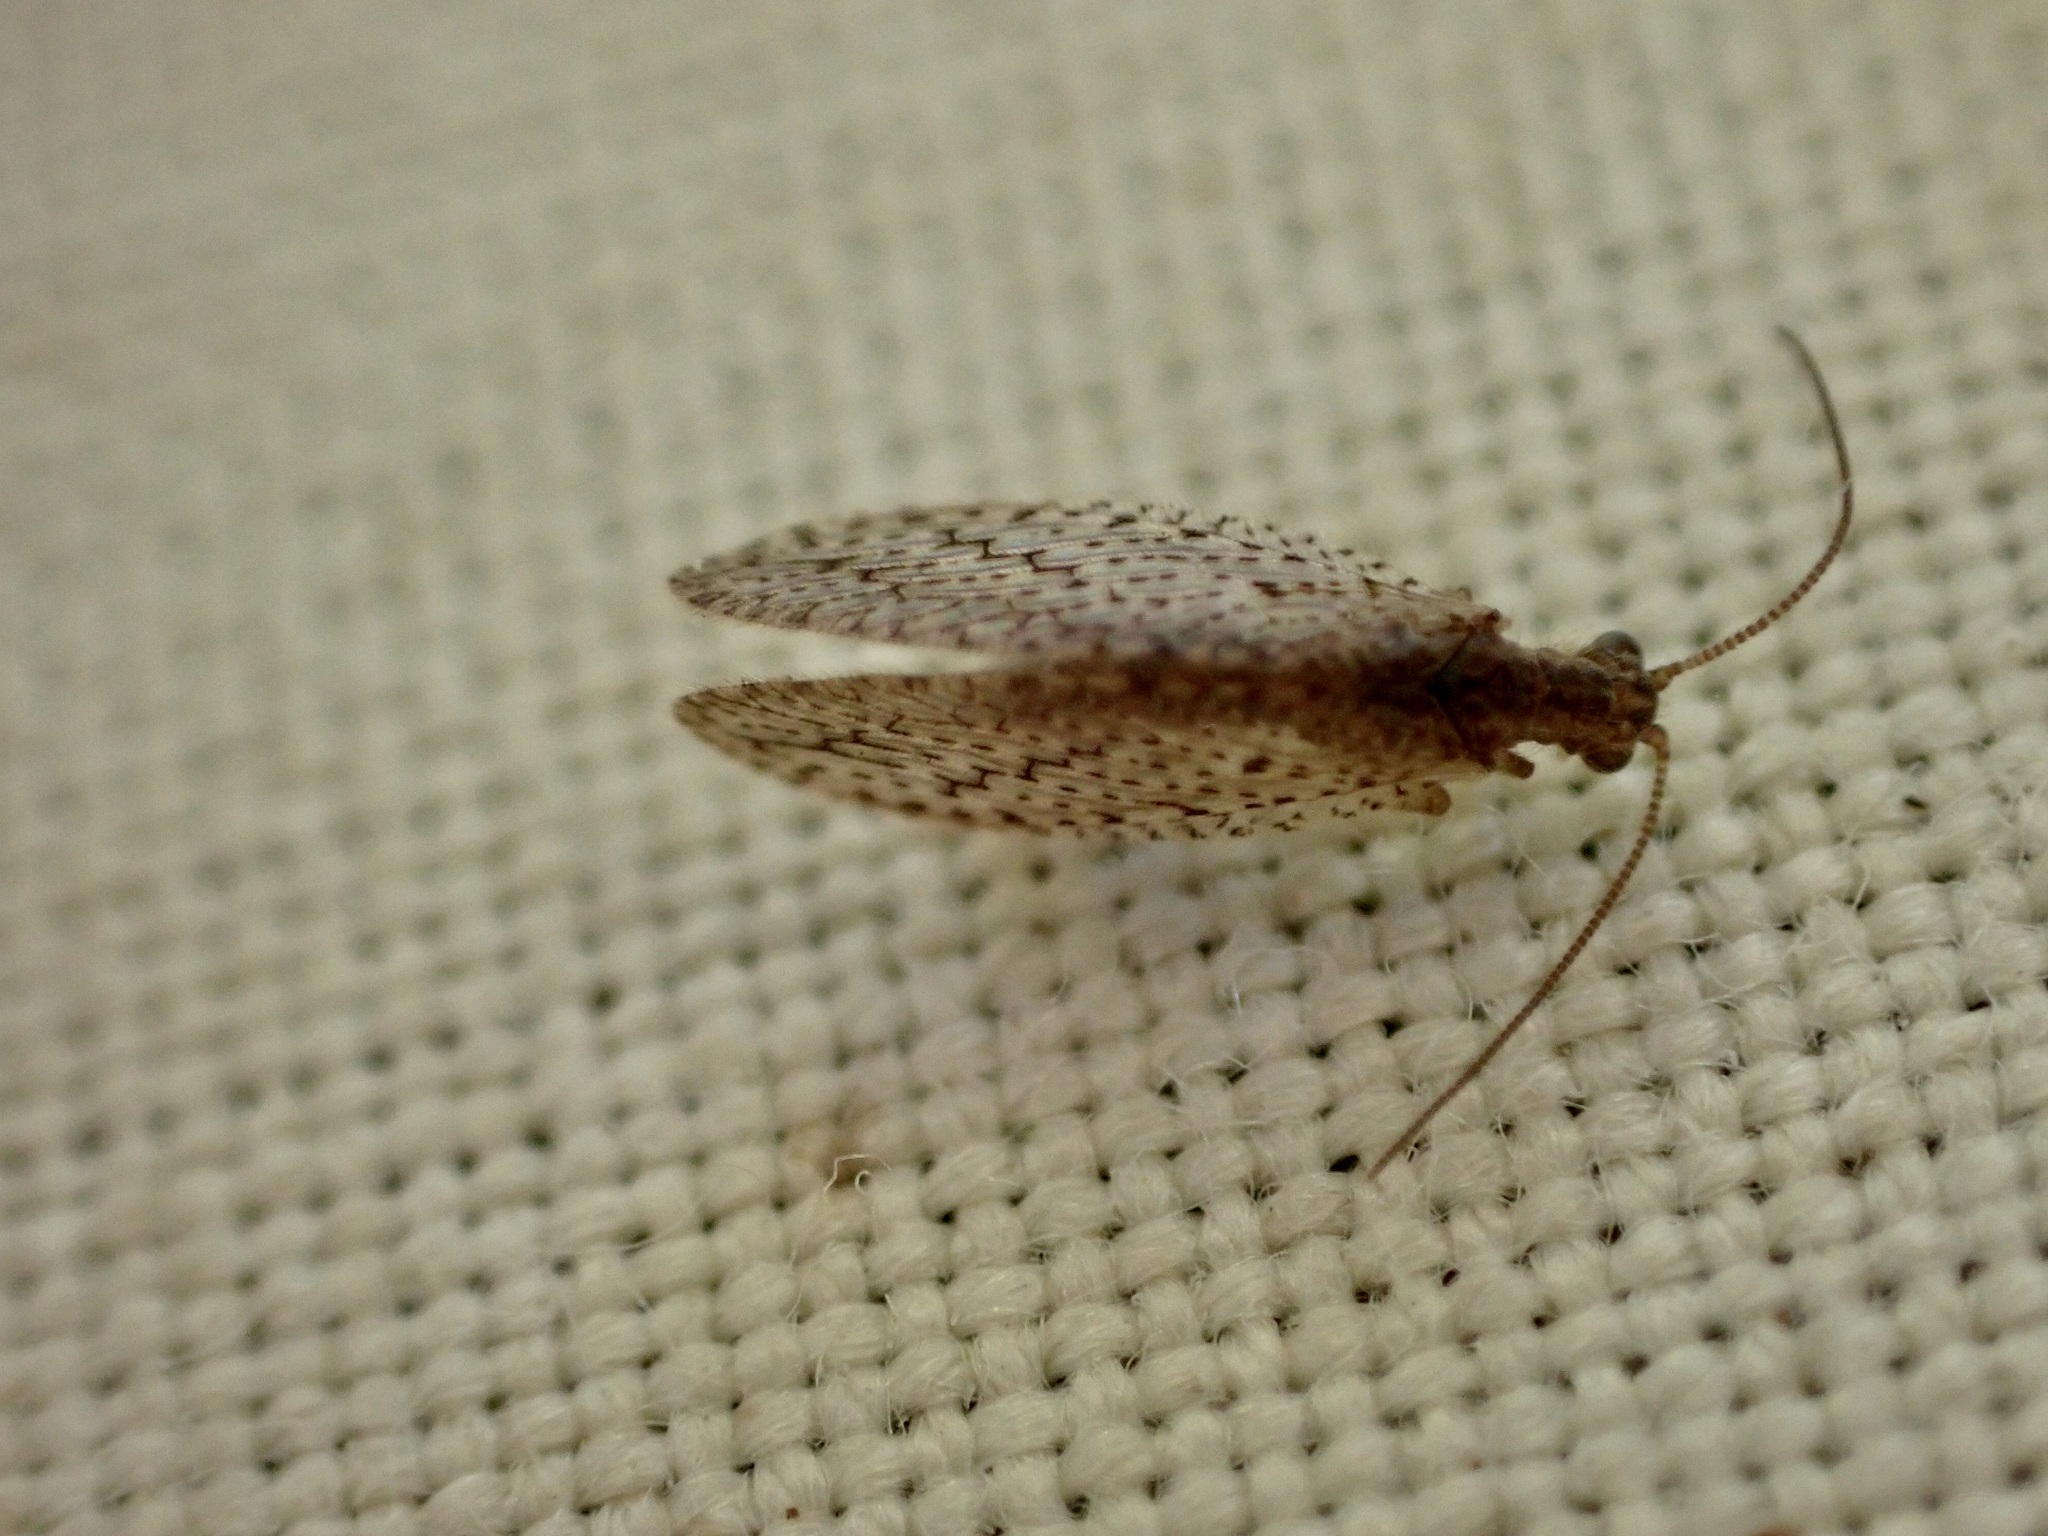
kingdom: Animalia
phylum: Arthropoda
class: Insecta
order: Neuroptera
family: Hemerobiidae
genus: Micromus
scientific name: Micromus tasmaniae
